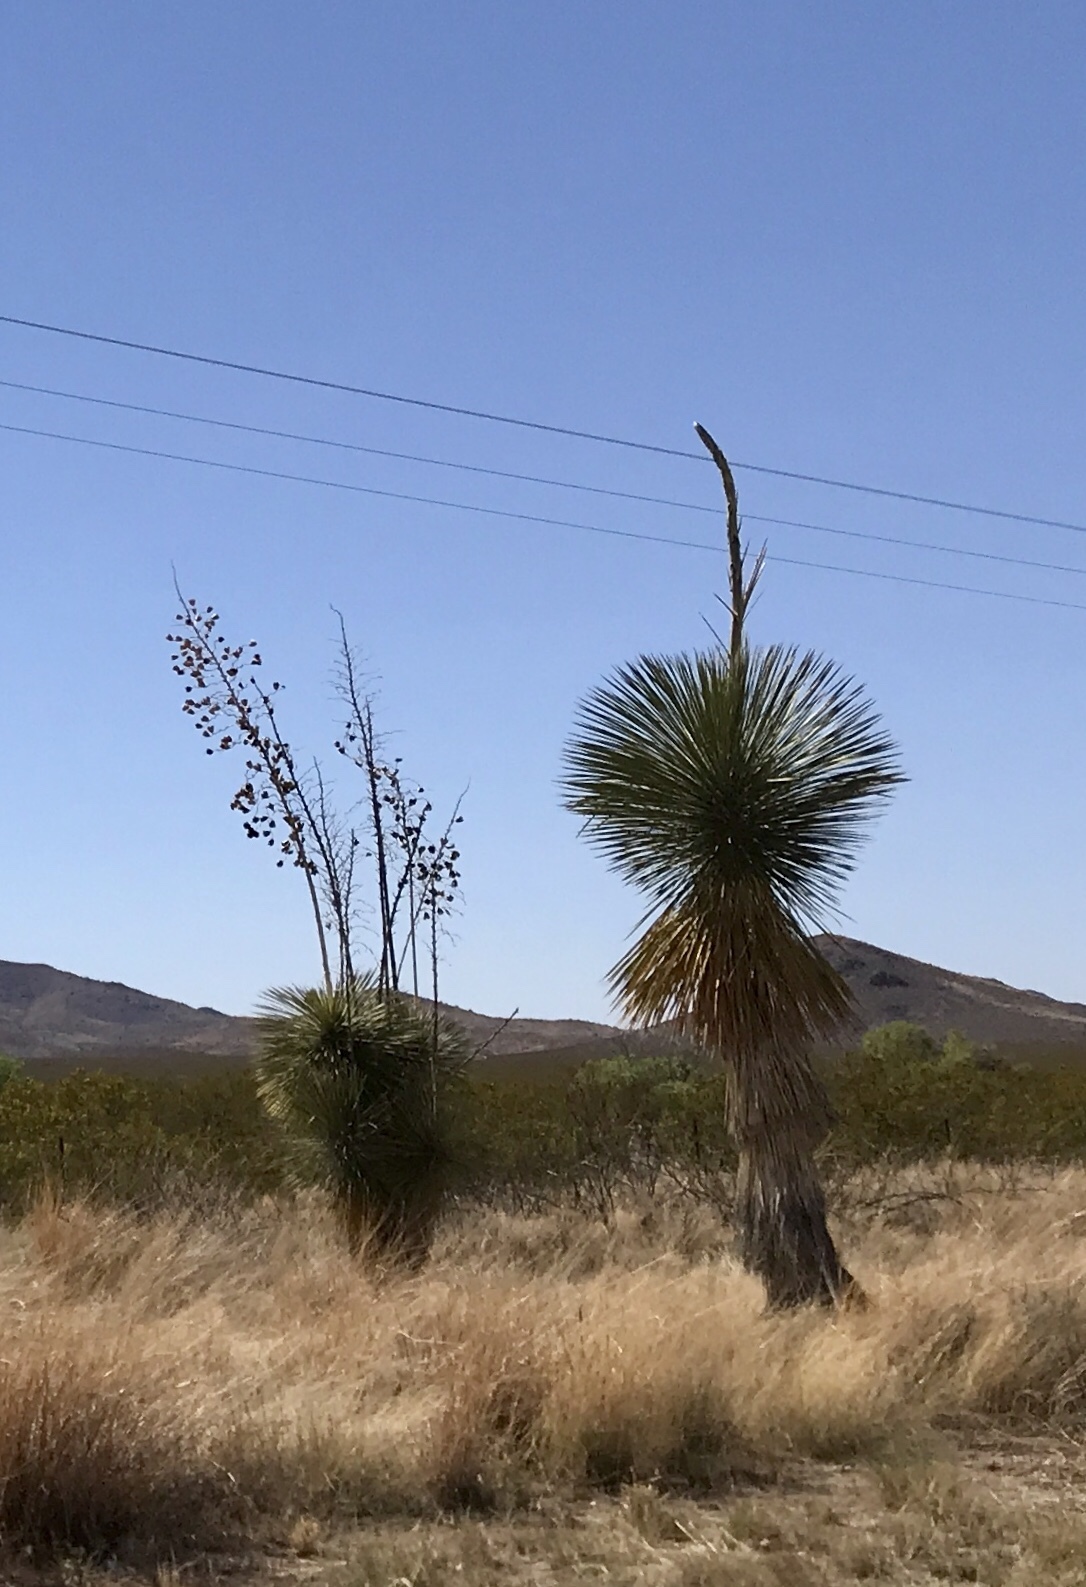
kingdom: Plantae
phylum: Tracheophyta
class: Liliopsida
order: Asparagales
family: Asparagaceae
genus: Yucca
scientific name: Yucca elata
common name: Palmella
